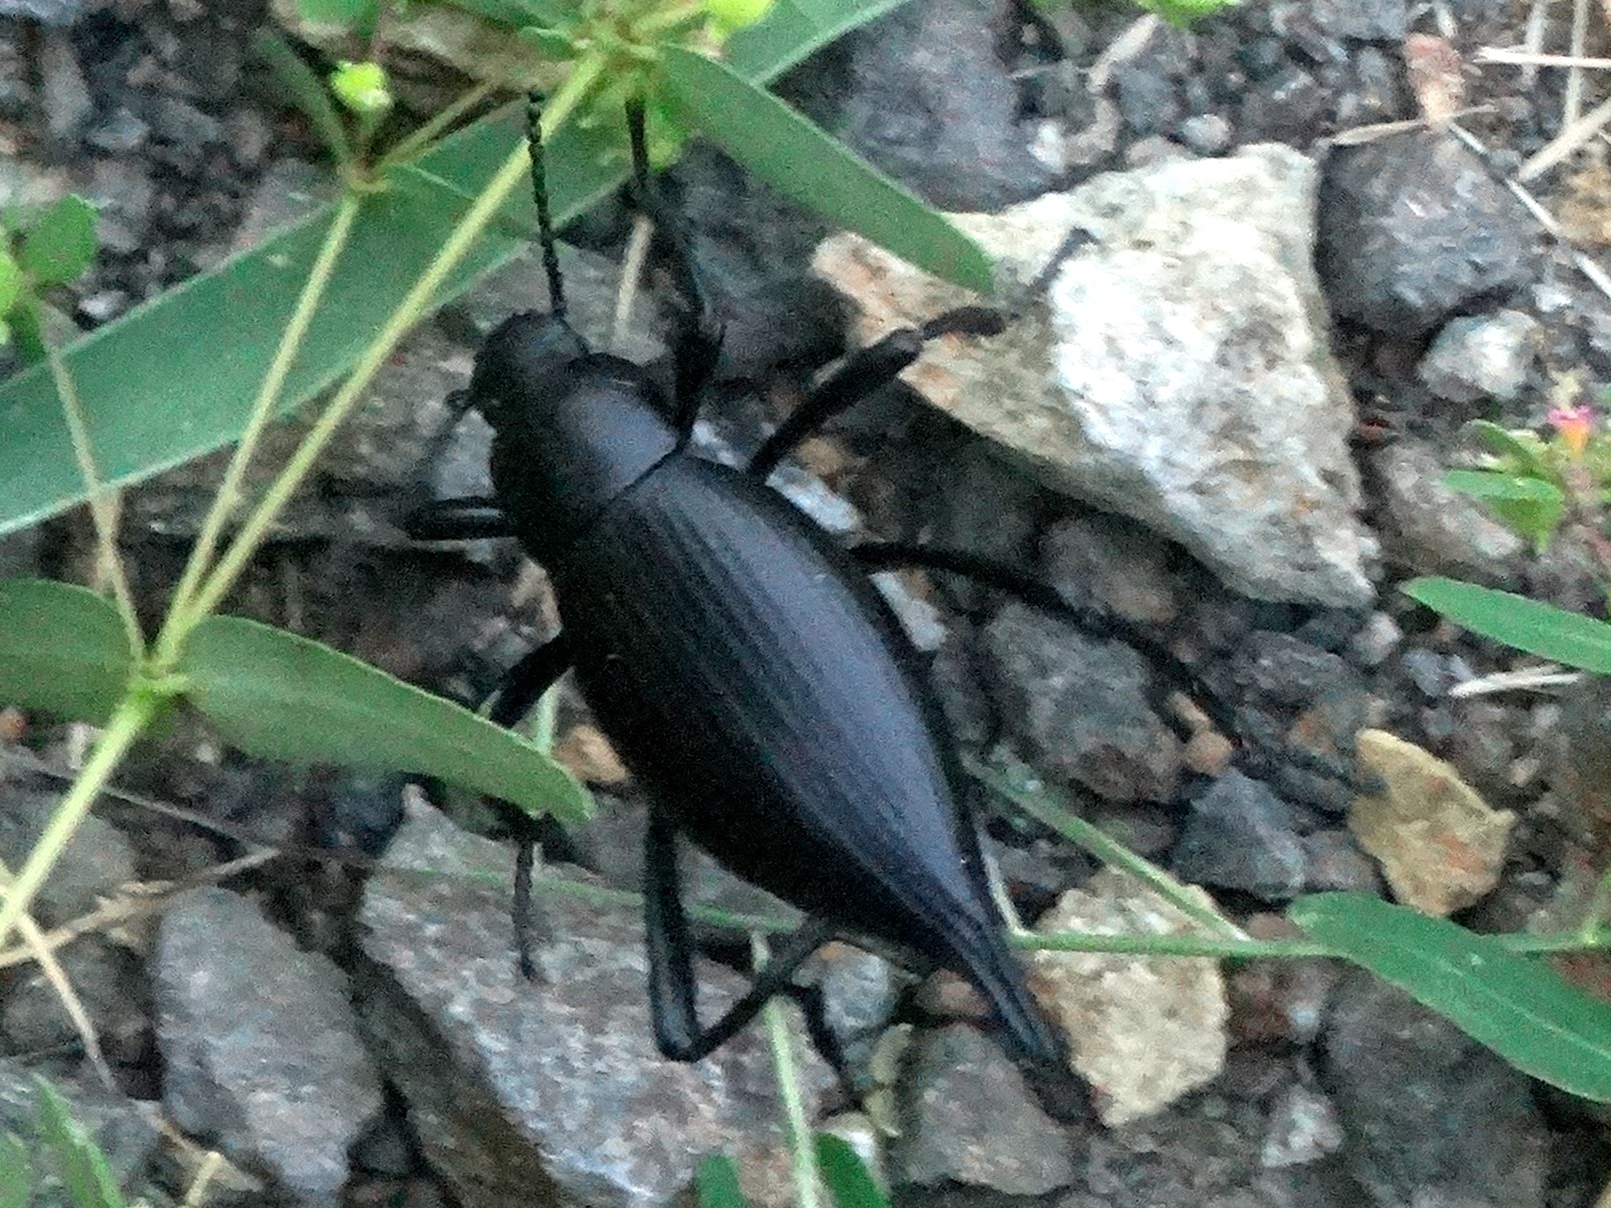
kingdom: Animalia
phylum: Arthropoda
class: Insecta
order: Coleoptera
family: Tenebrionidae
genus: Eleodes
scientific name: Eleodes eschscholtzii
